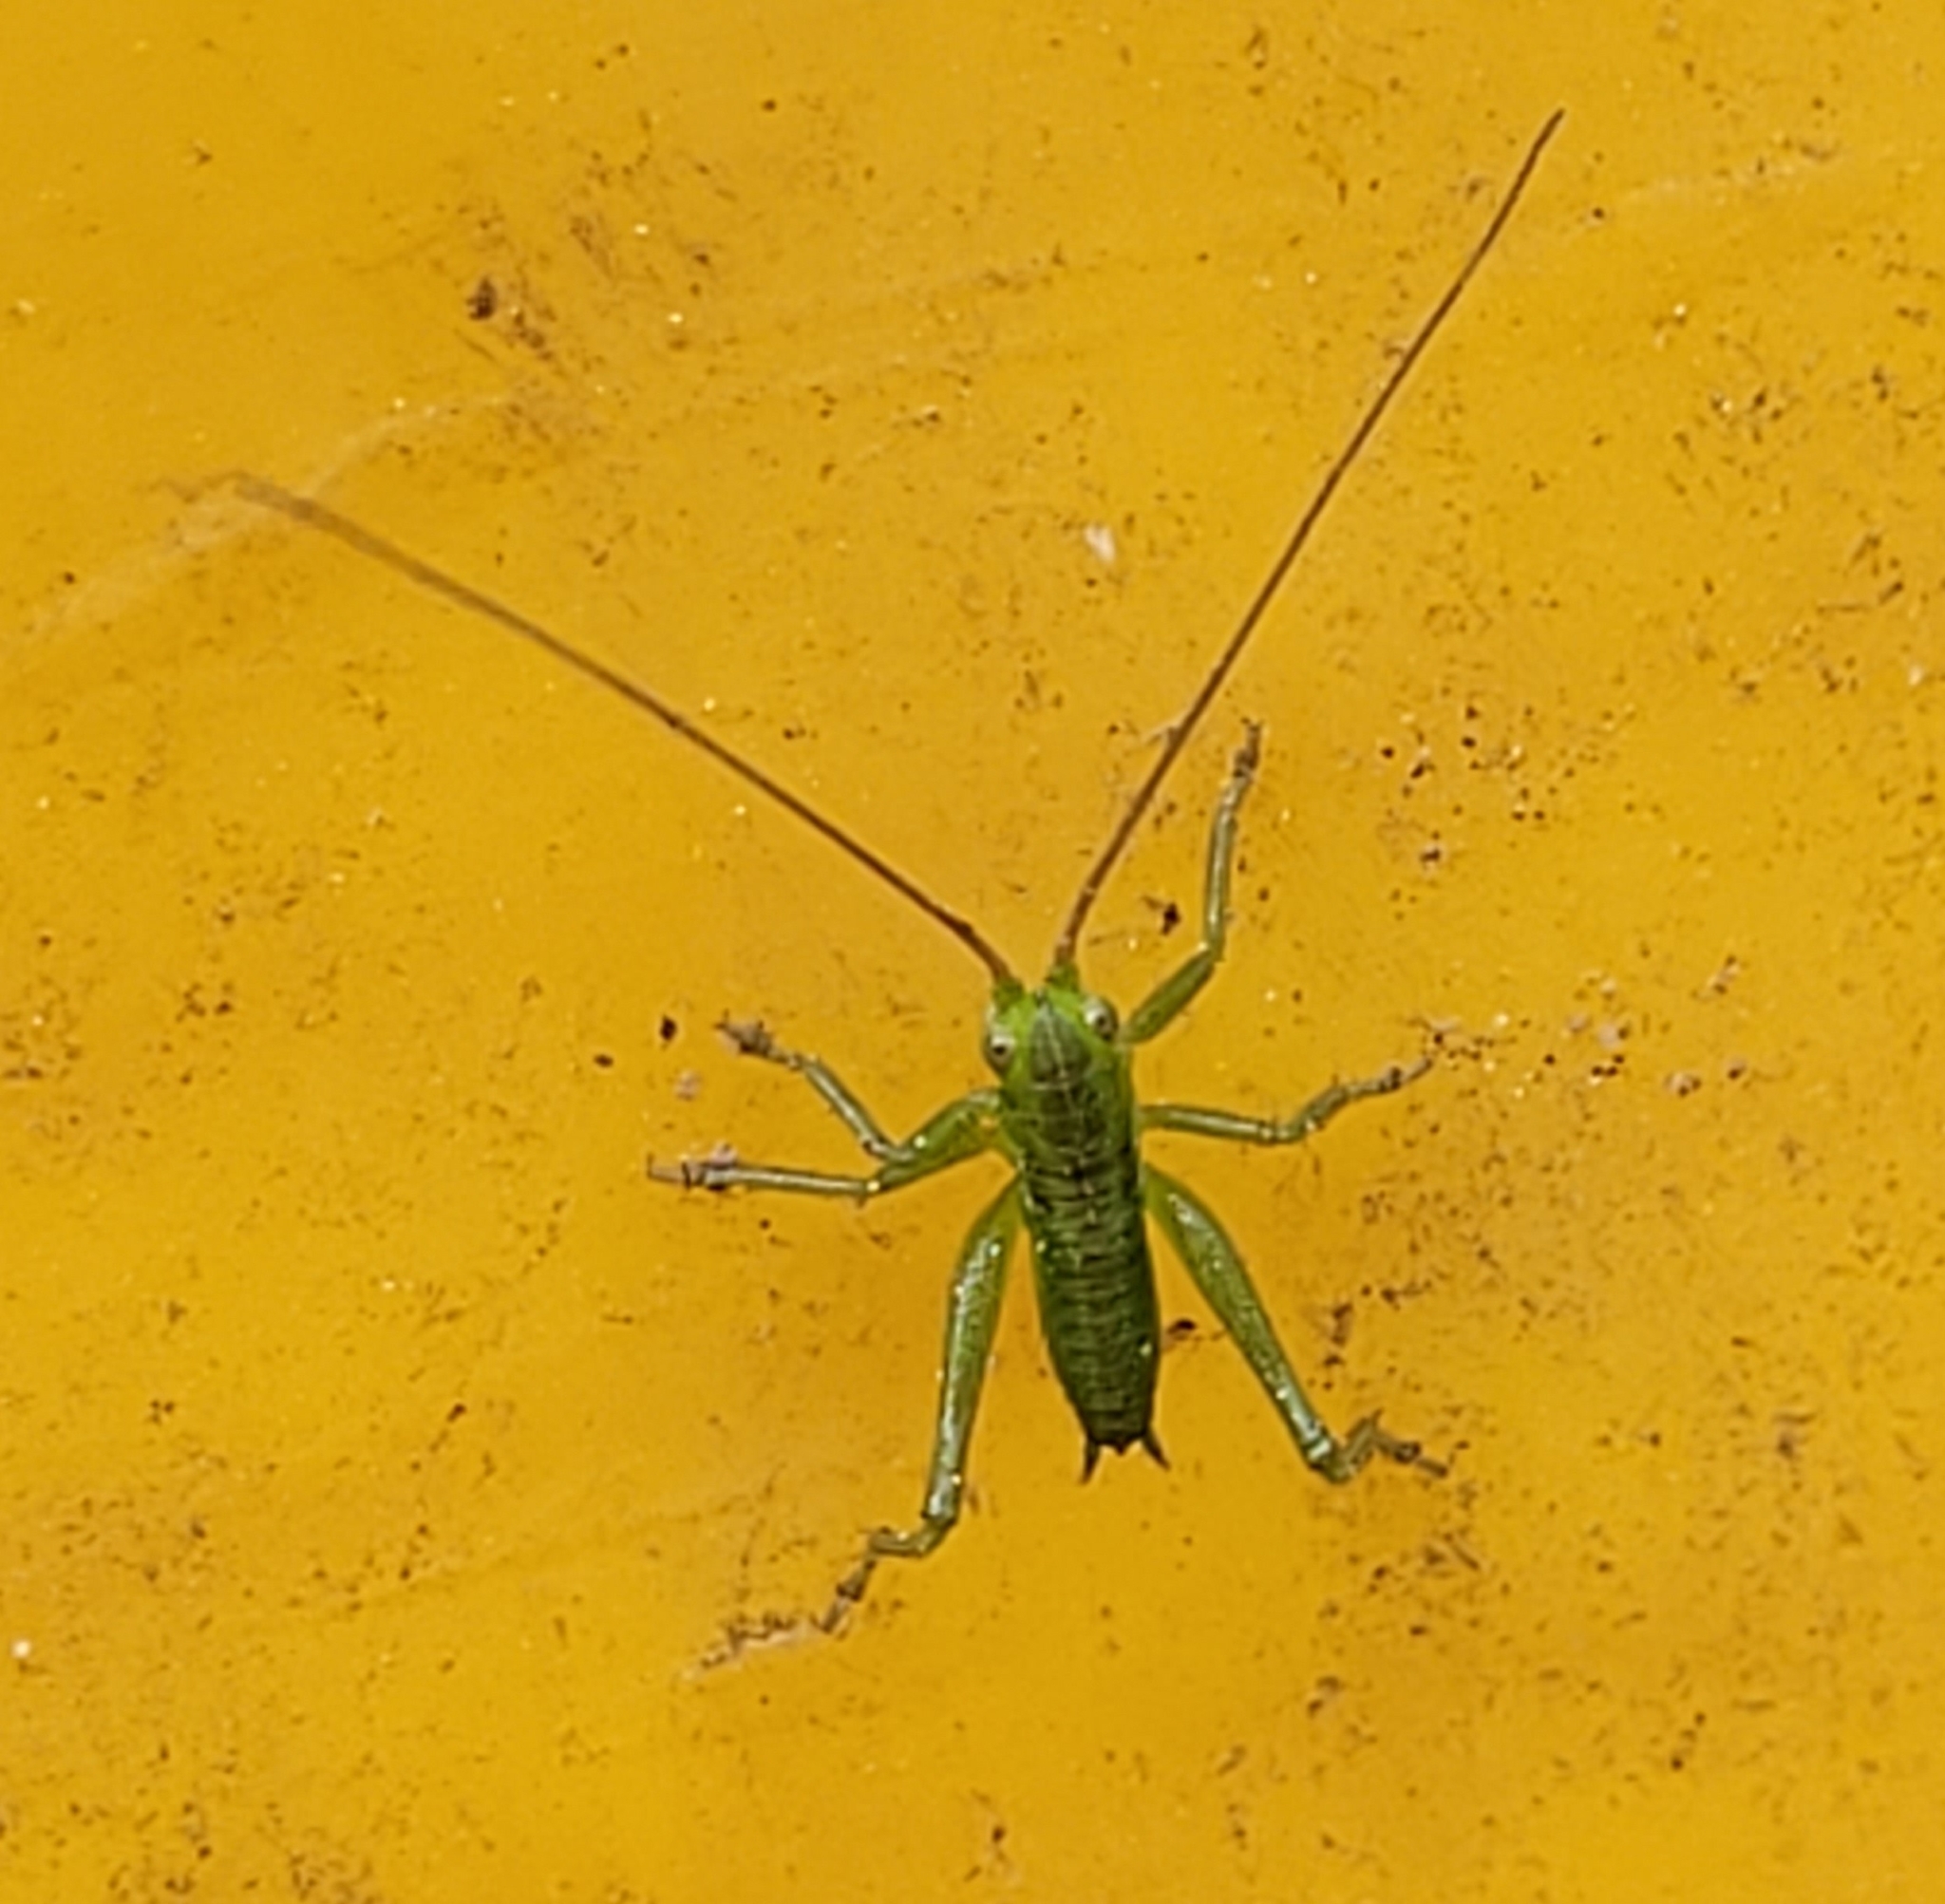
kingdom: Animalia
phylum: Arthropoda
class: Insecta
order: Orthoptera
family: Tettigoniidae
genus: Tettigonia
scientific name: Tettigonia viridissima
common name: Great green bush-cricket
